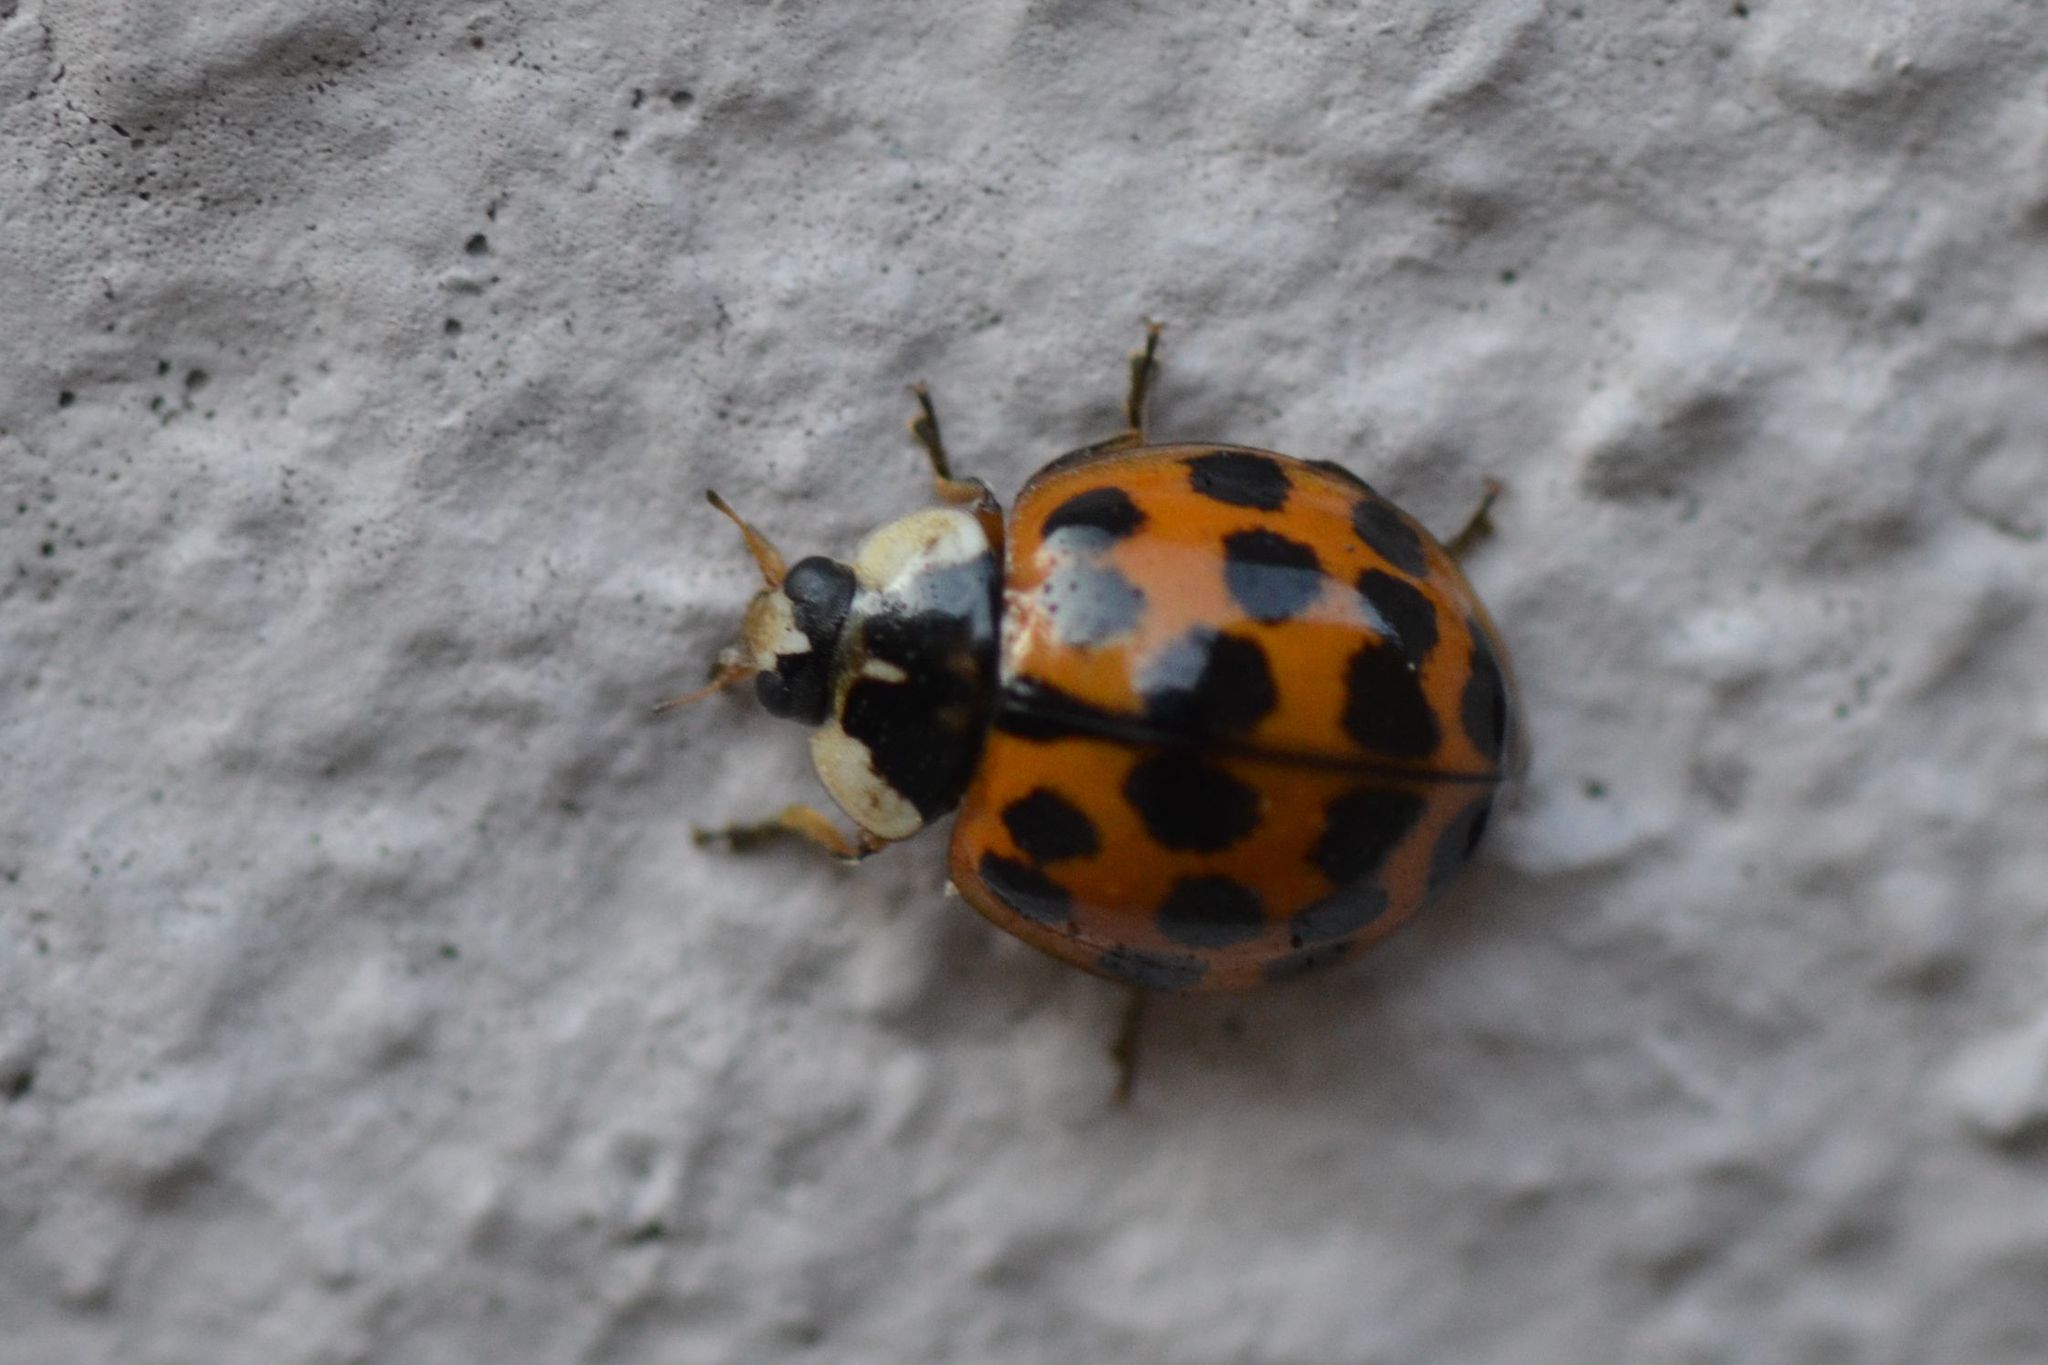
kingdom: Animalia
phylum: Arthropoda
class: Insecta
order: Coleoptera
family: Coccinellidae
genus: Harmonia
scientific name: Harmonia axyridis
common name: Harlequin ladybird
